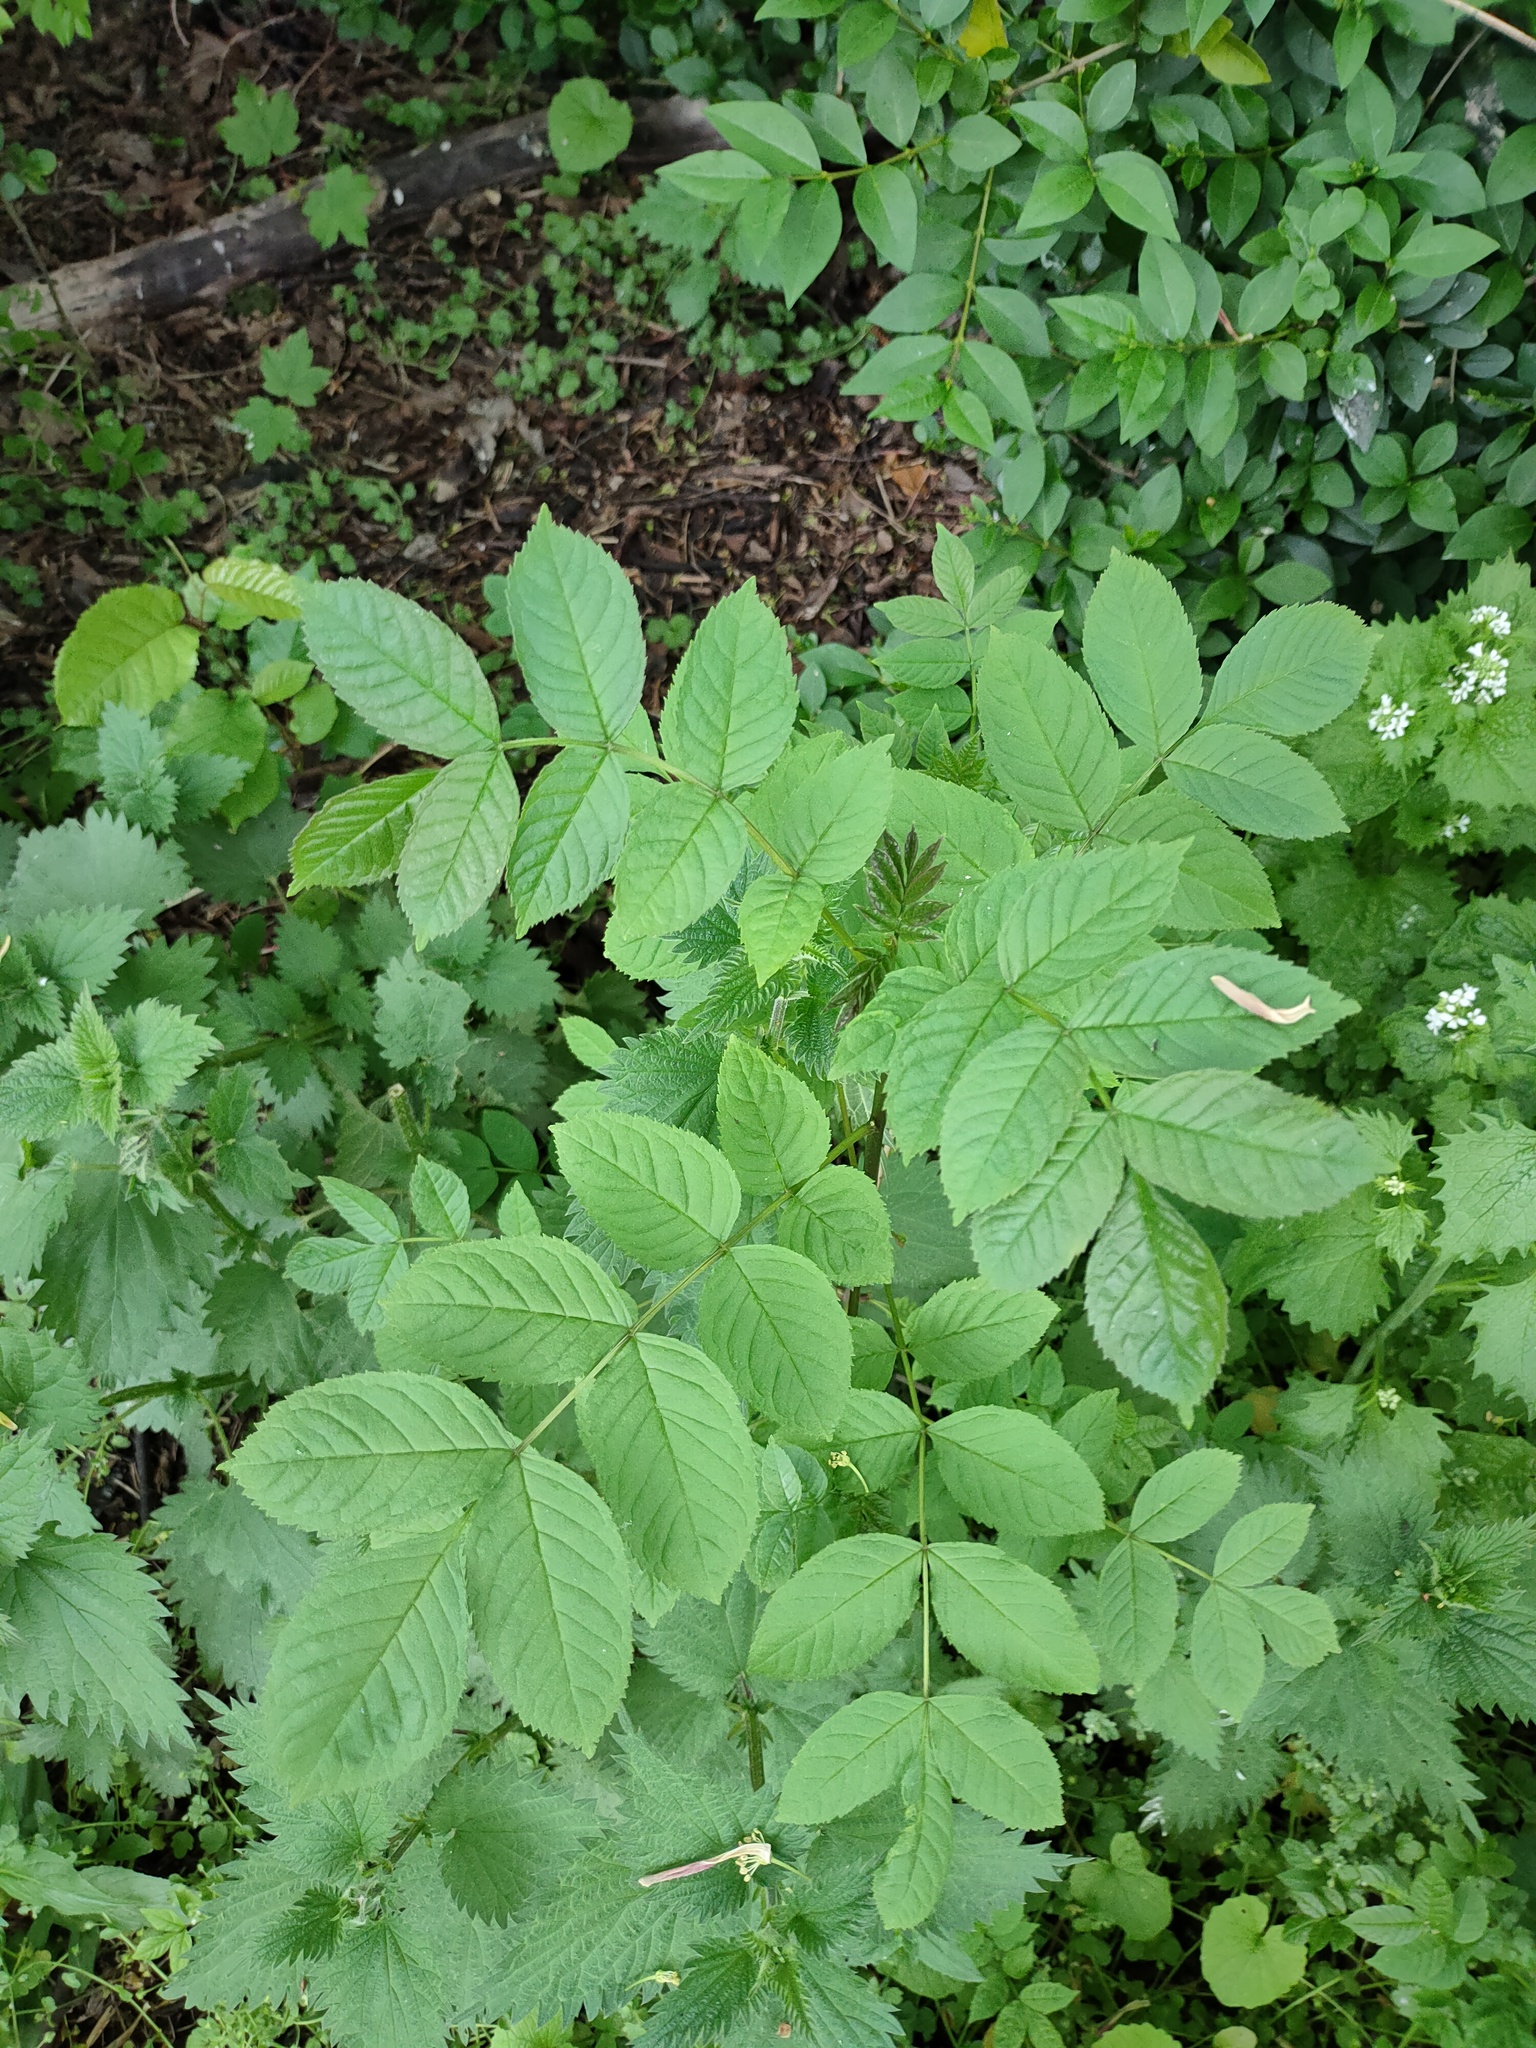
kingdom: Plantae
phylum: Tracheophyta
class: Magnoliopsida
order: Lamiales
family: Oleaceae
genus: Fraxinus
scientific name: Fraxinus excelsior
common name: European ash
